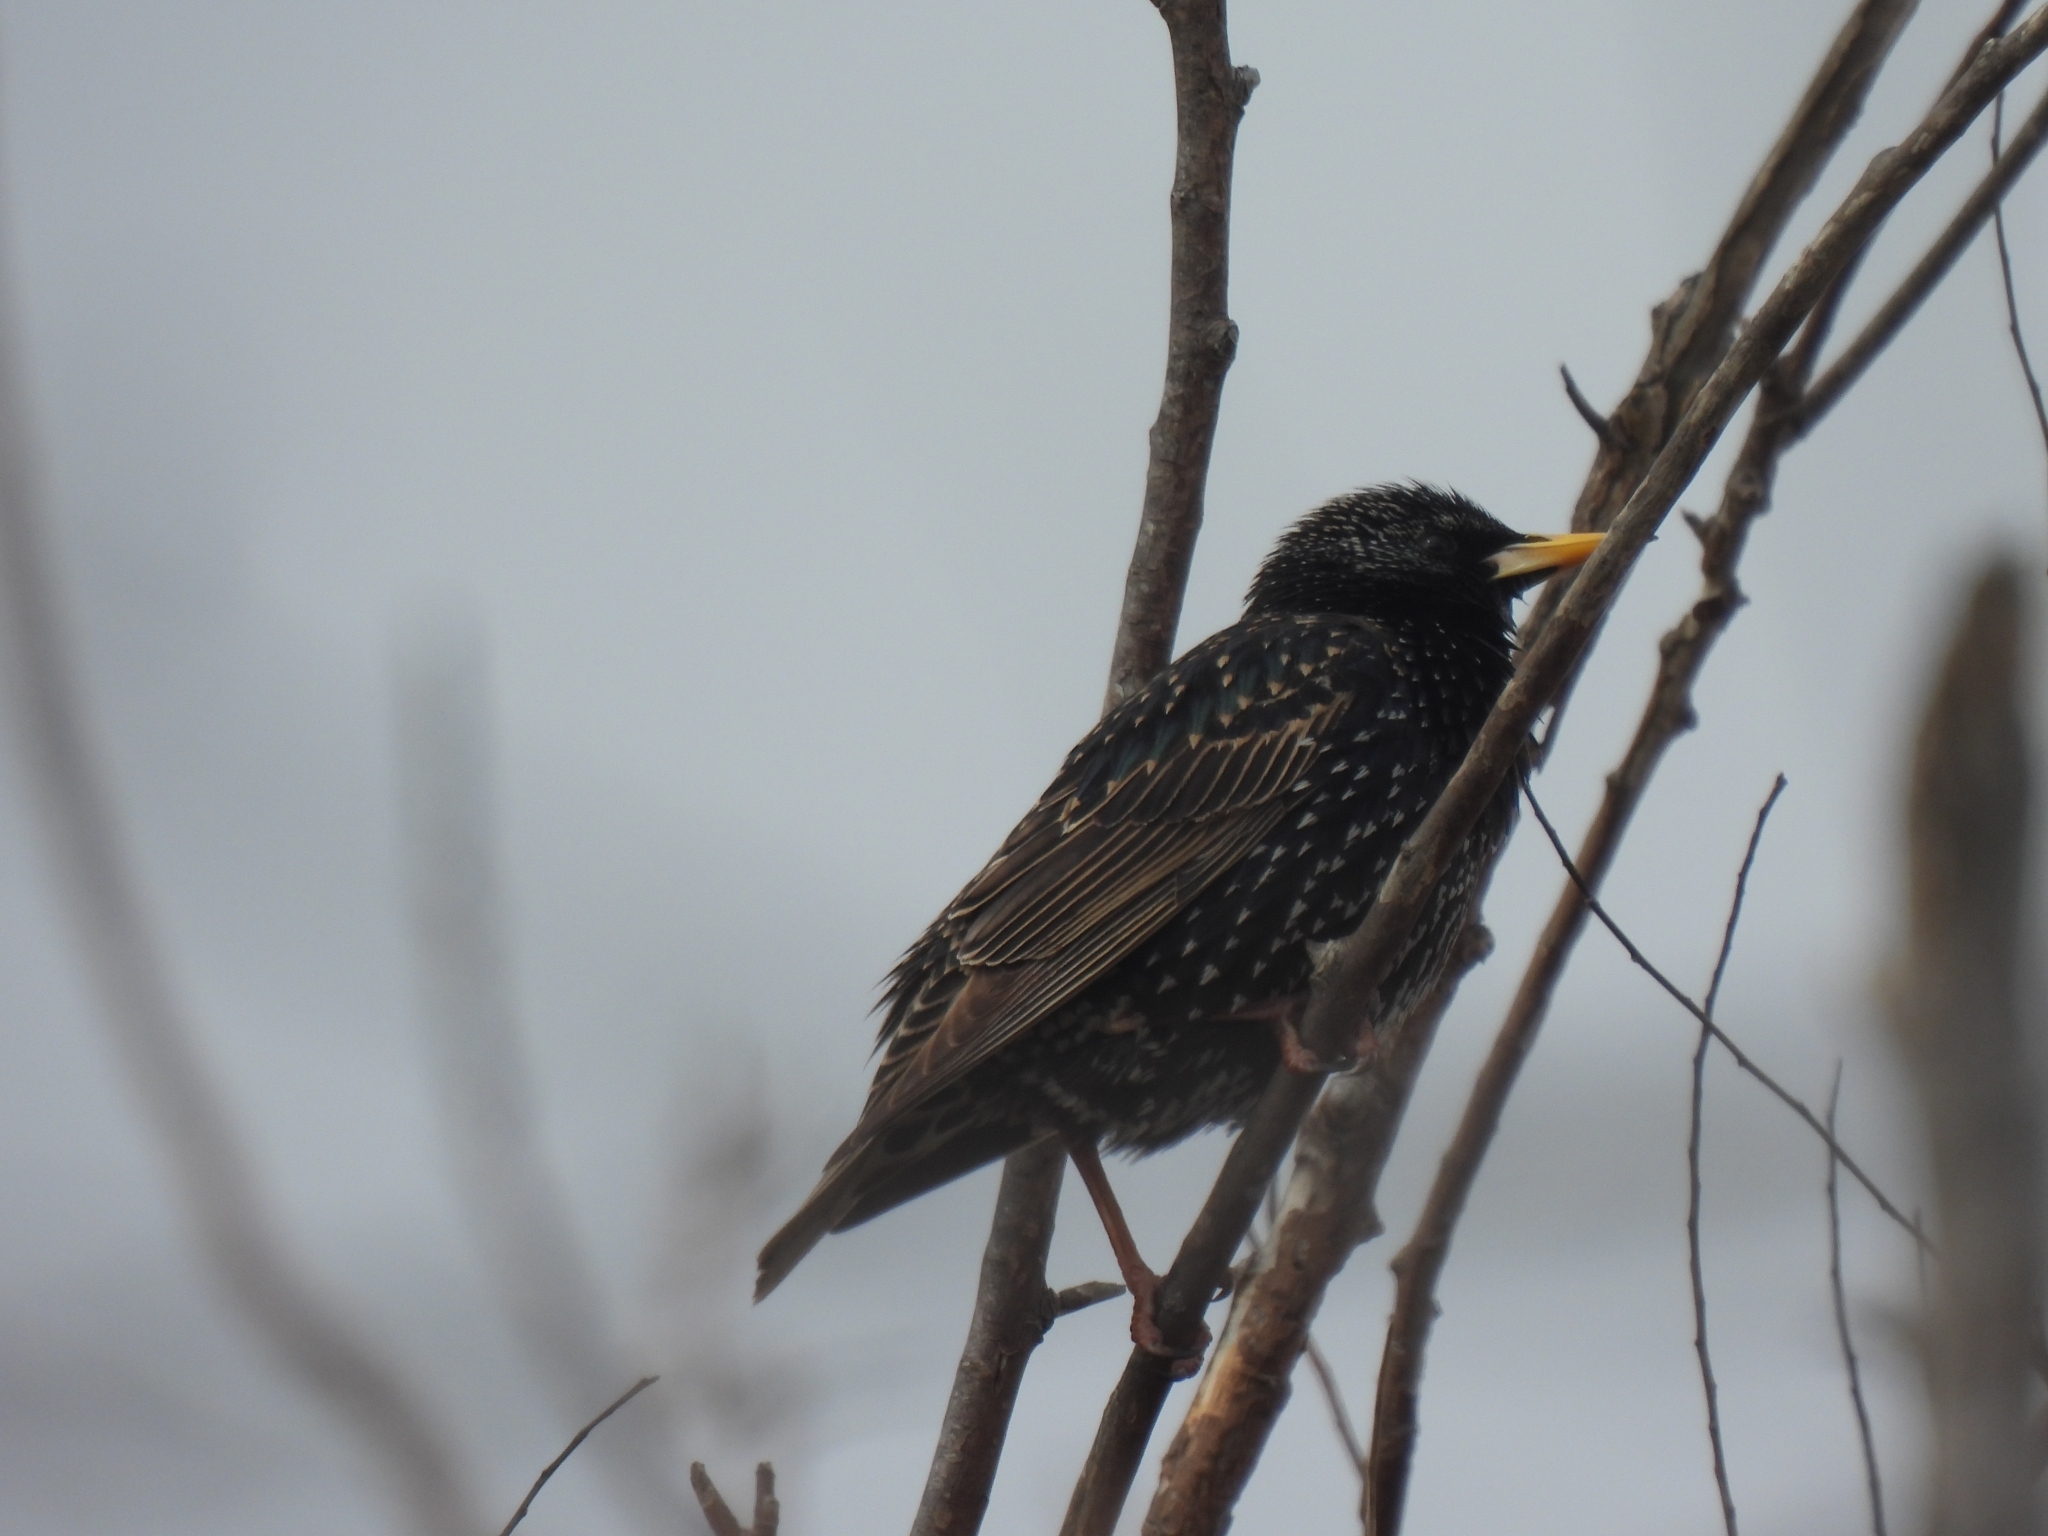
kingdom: Animalia
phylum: Chordata
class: Aves
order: Passeriformes
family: Sturnidae
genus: Sturnus
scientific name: Sturnus vulgaris
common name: Common starling
